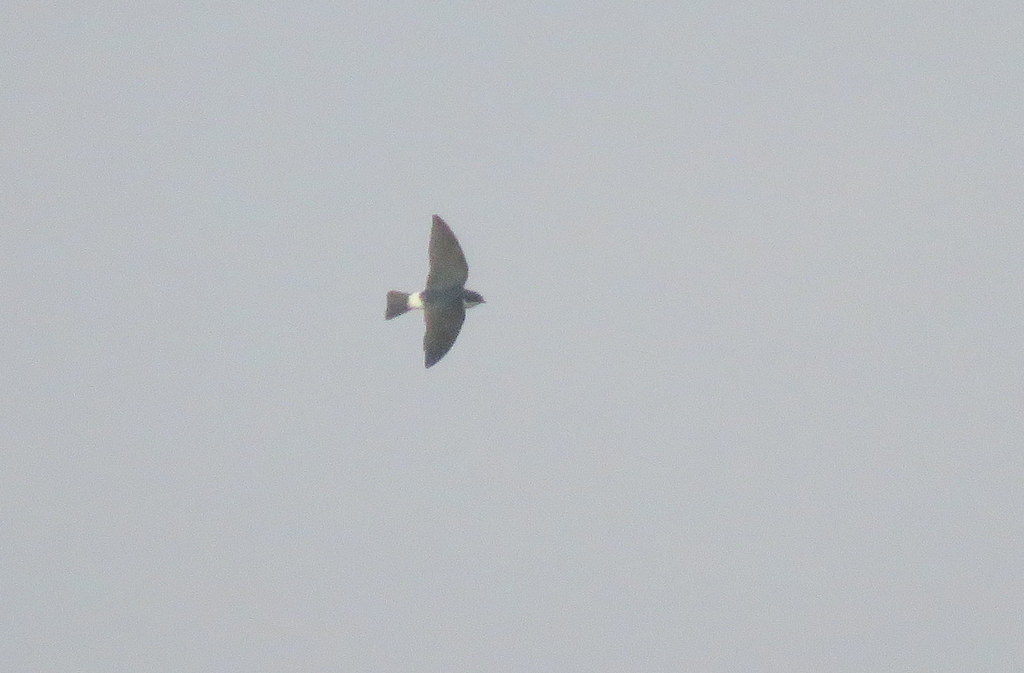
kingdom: Animalia
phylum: Chordata
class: Aves
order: Passeriformes
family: Hirundinidae
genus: Tachycineta
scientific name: Tachycineta leucopyga
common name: Chilean swallow
